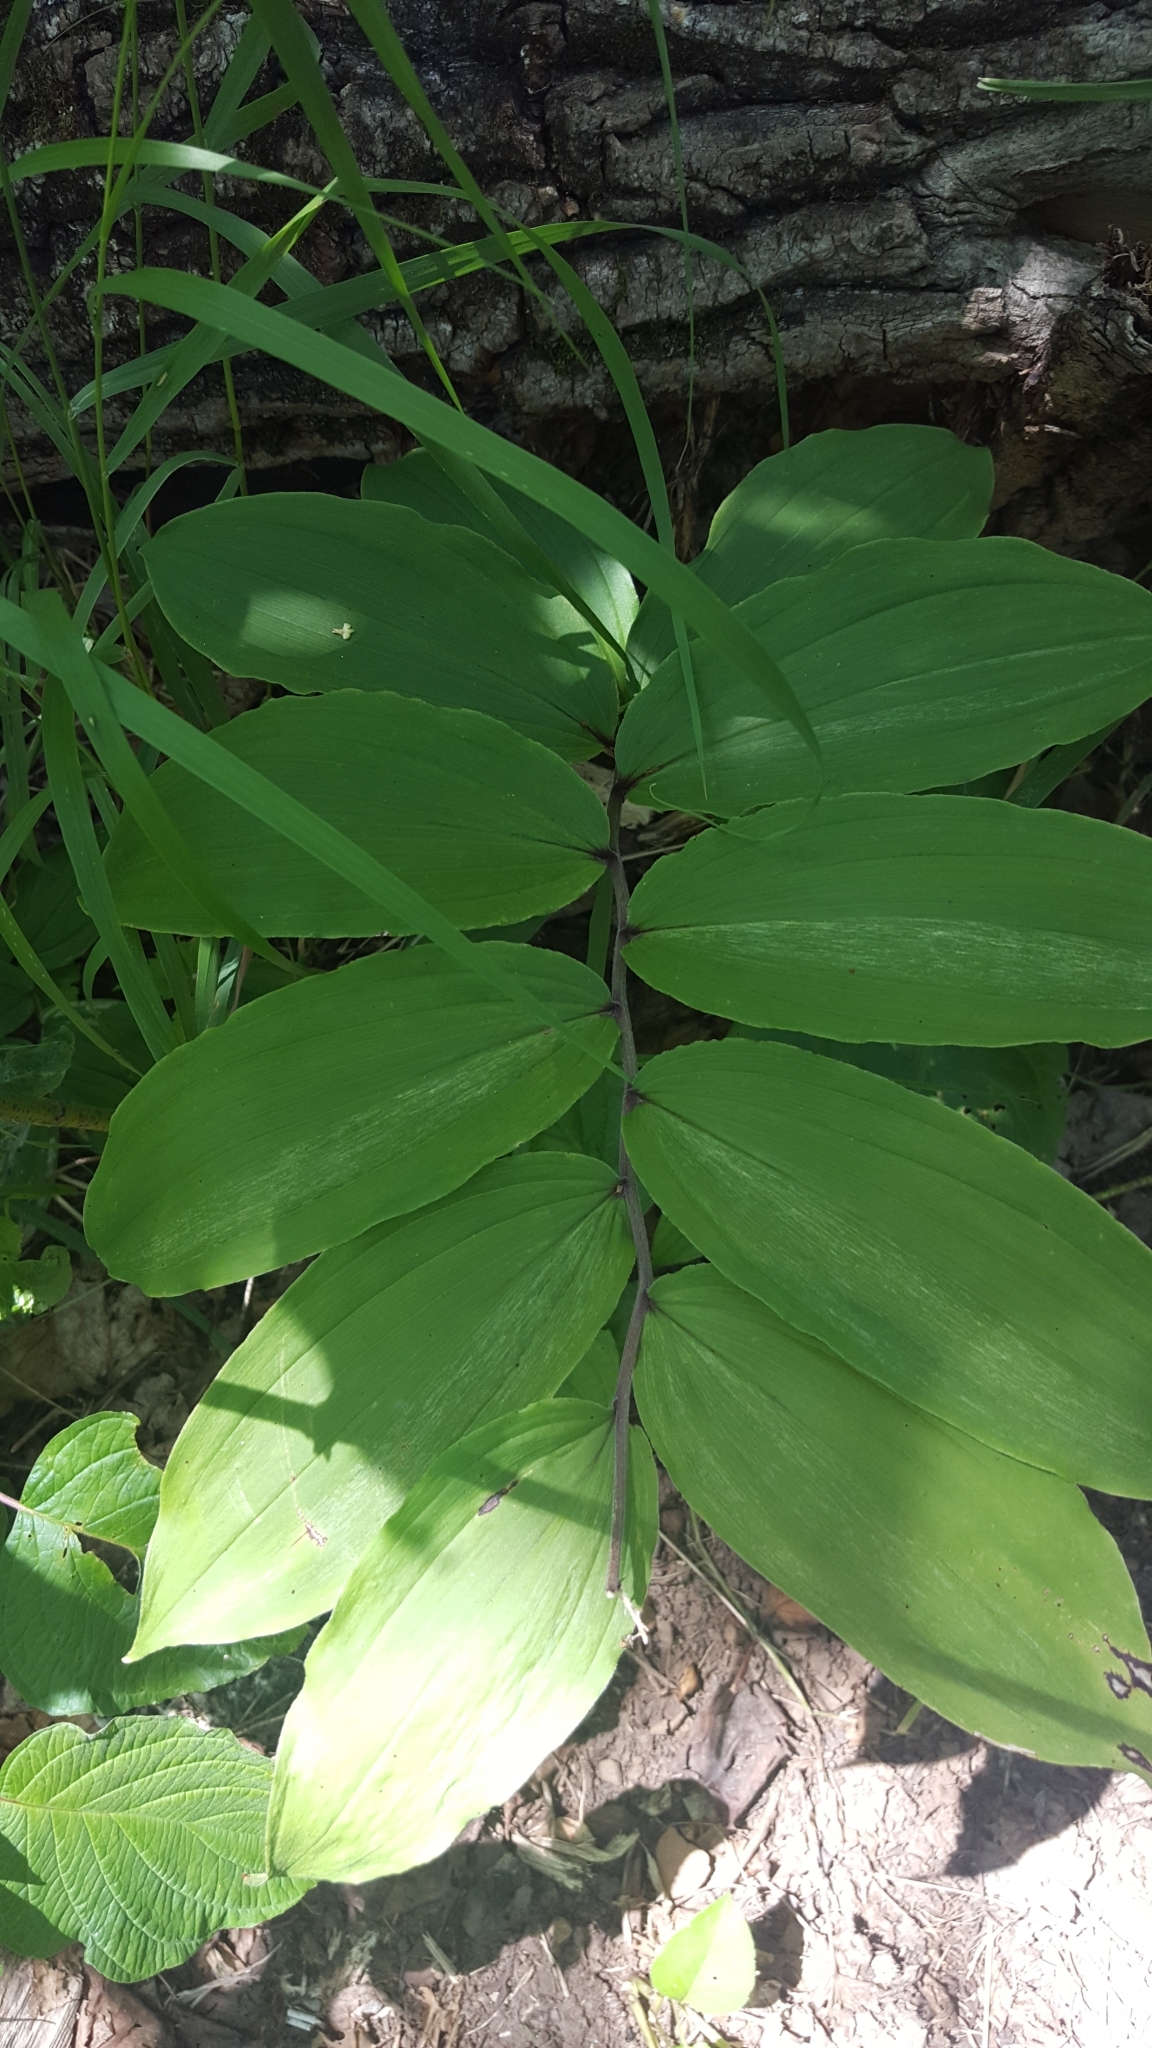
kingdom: Plantae
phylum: Tracheophyta
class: Liliopsida
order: Asparagales
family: Asparagaceae
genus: Maianthemum
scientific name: Maianthemum racemosum
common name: False spikenard
